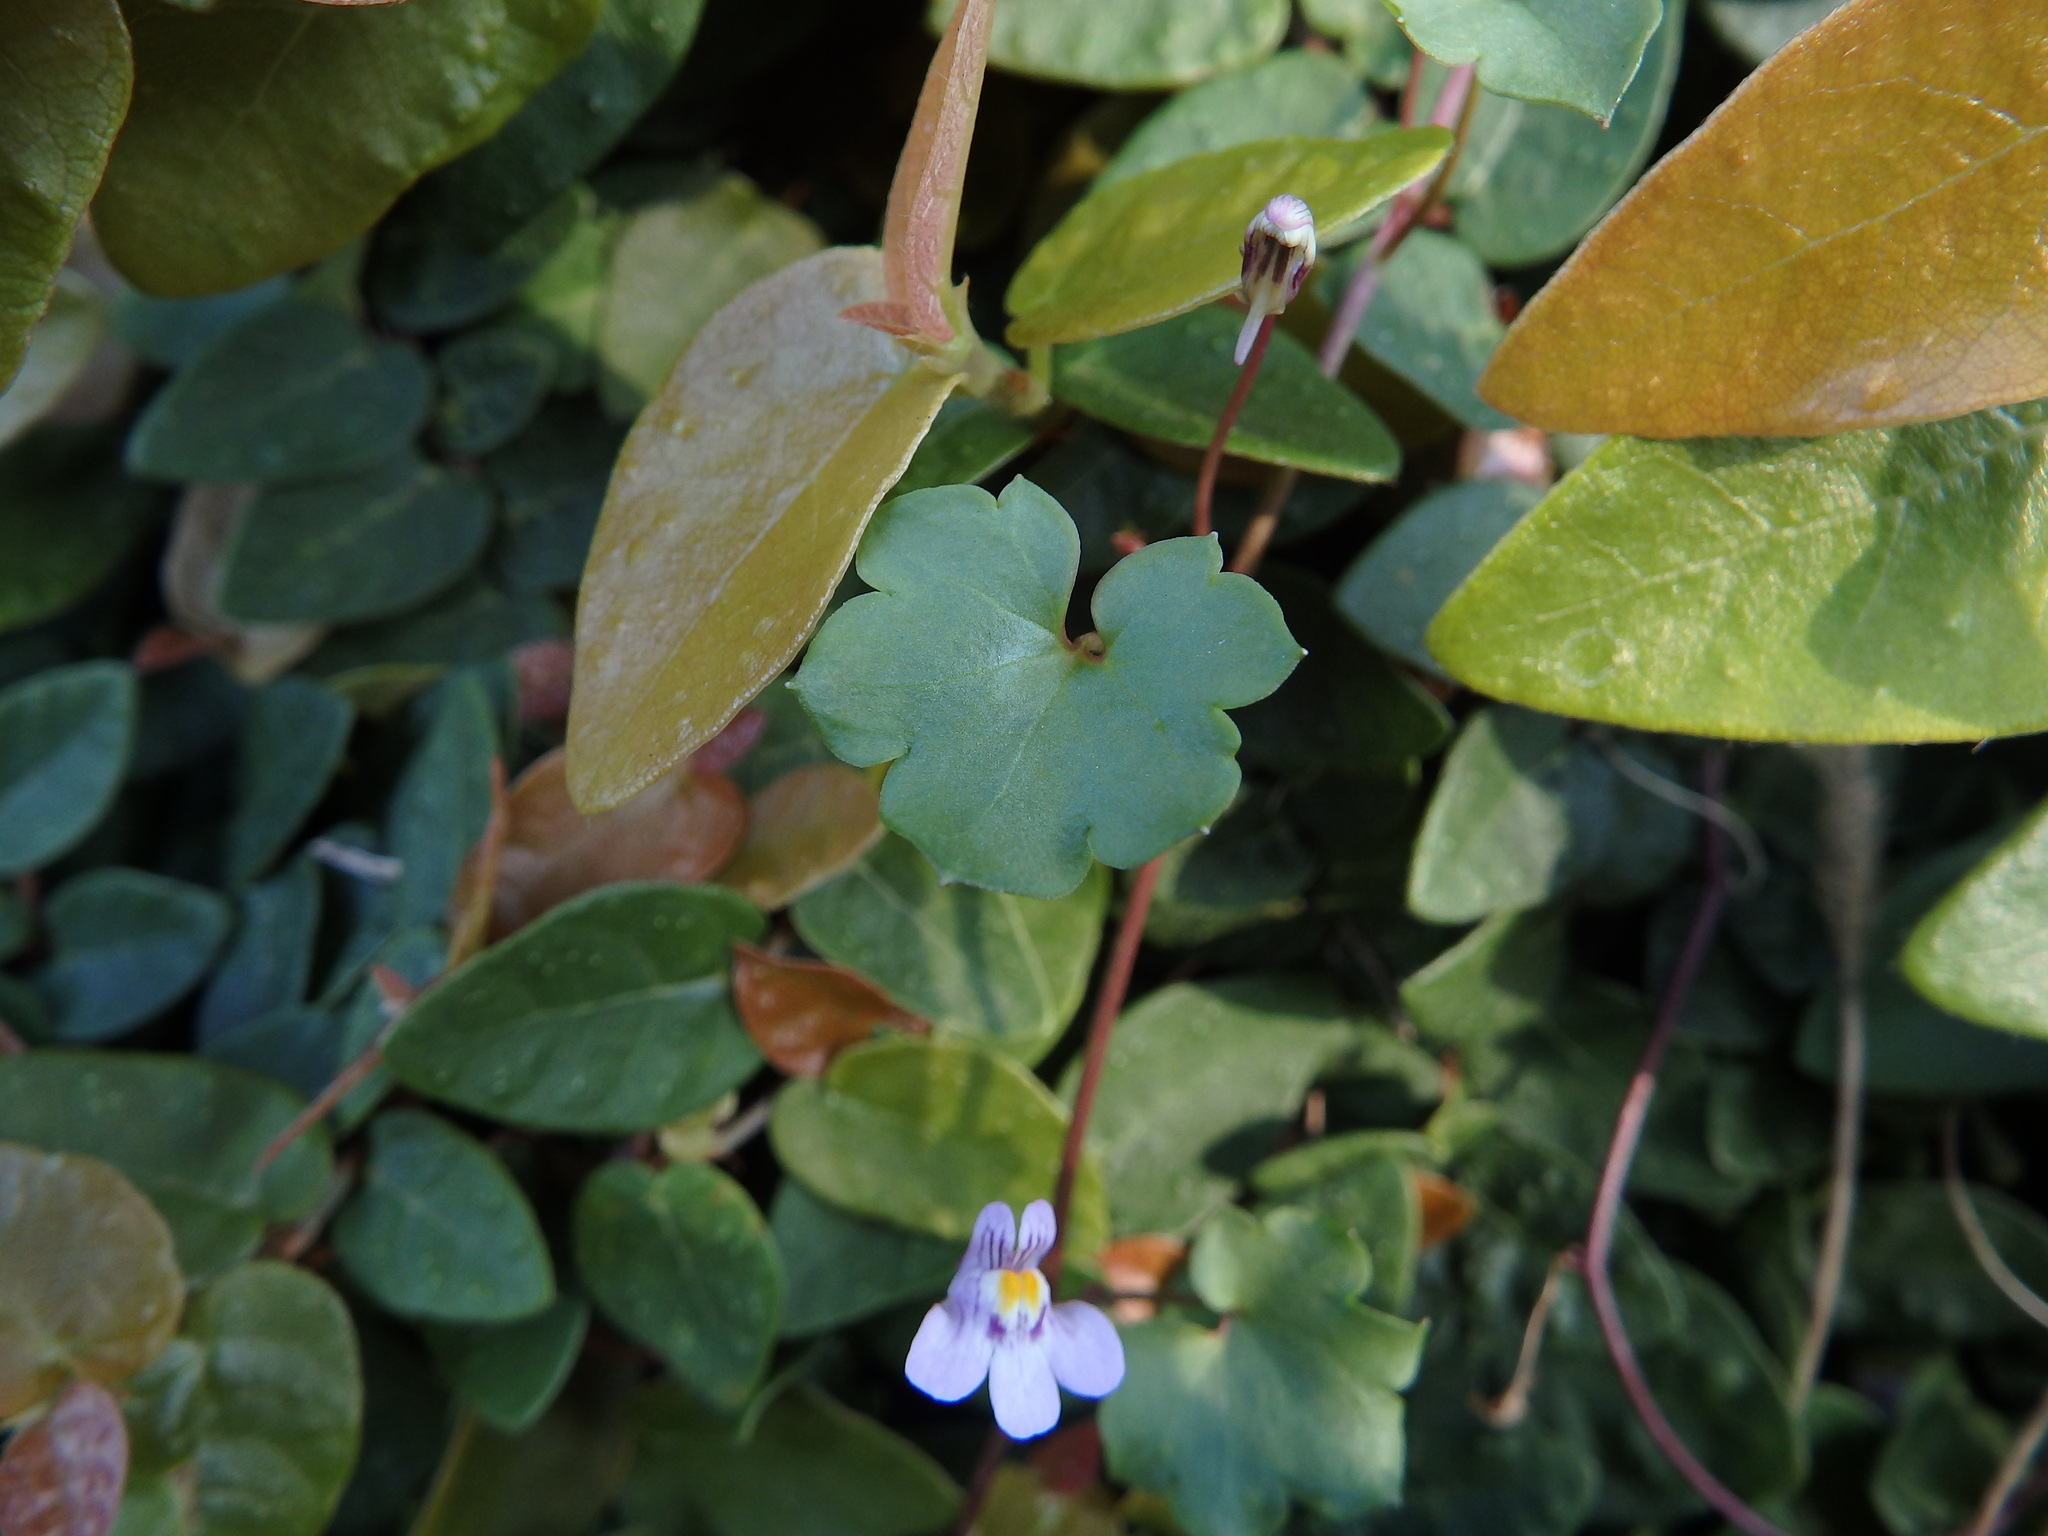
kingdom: Plantae
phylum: Tracheophyta
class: Magnoliopsida
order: Lamiales
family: Plantaginaceae
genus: Cymbalaria
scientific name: Cymbalaria muralis
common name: Ivy-leaved toadflax
